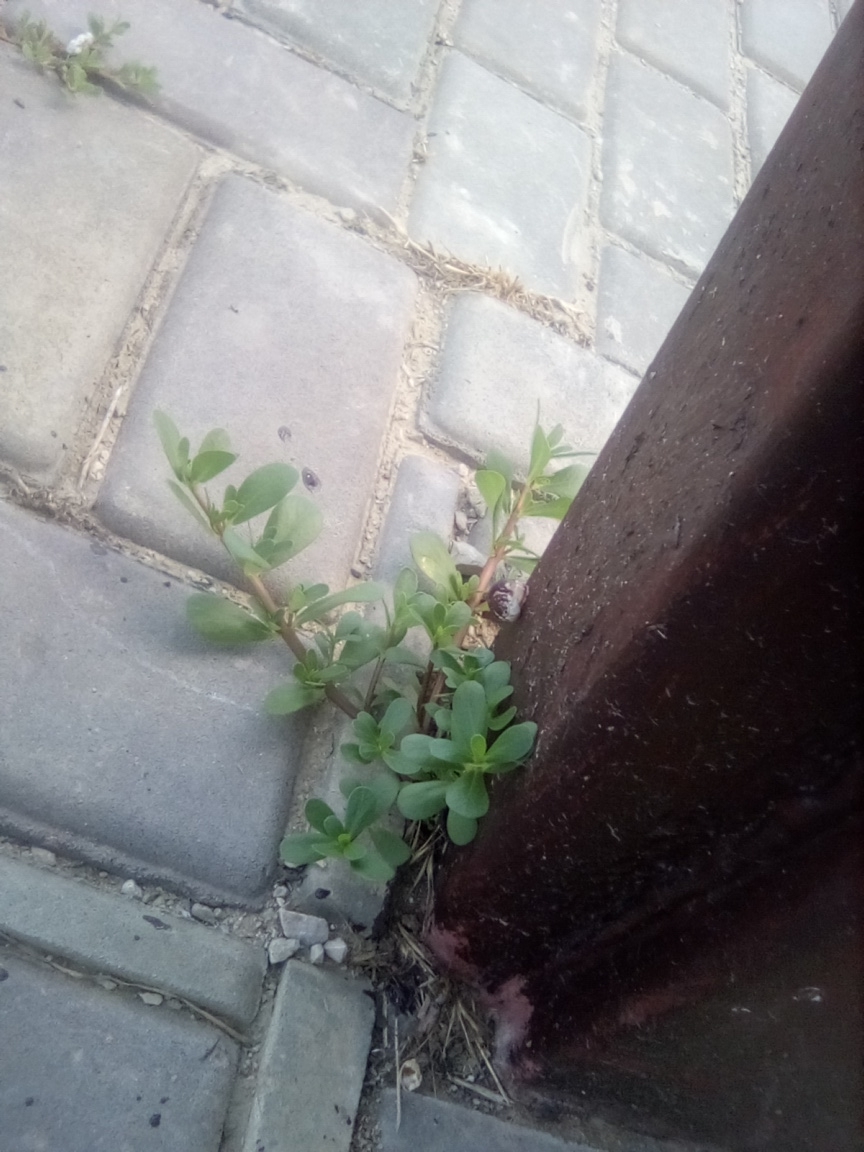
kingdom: Plantae
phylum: Tracheophyta
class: Magnoliopsida
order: Caryophyllales
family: Portulacaceae
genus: Portulaca
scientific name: Portulaca oleracea
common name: Common purslane
